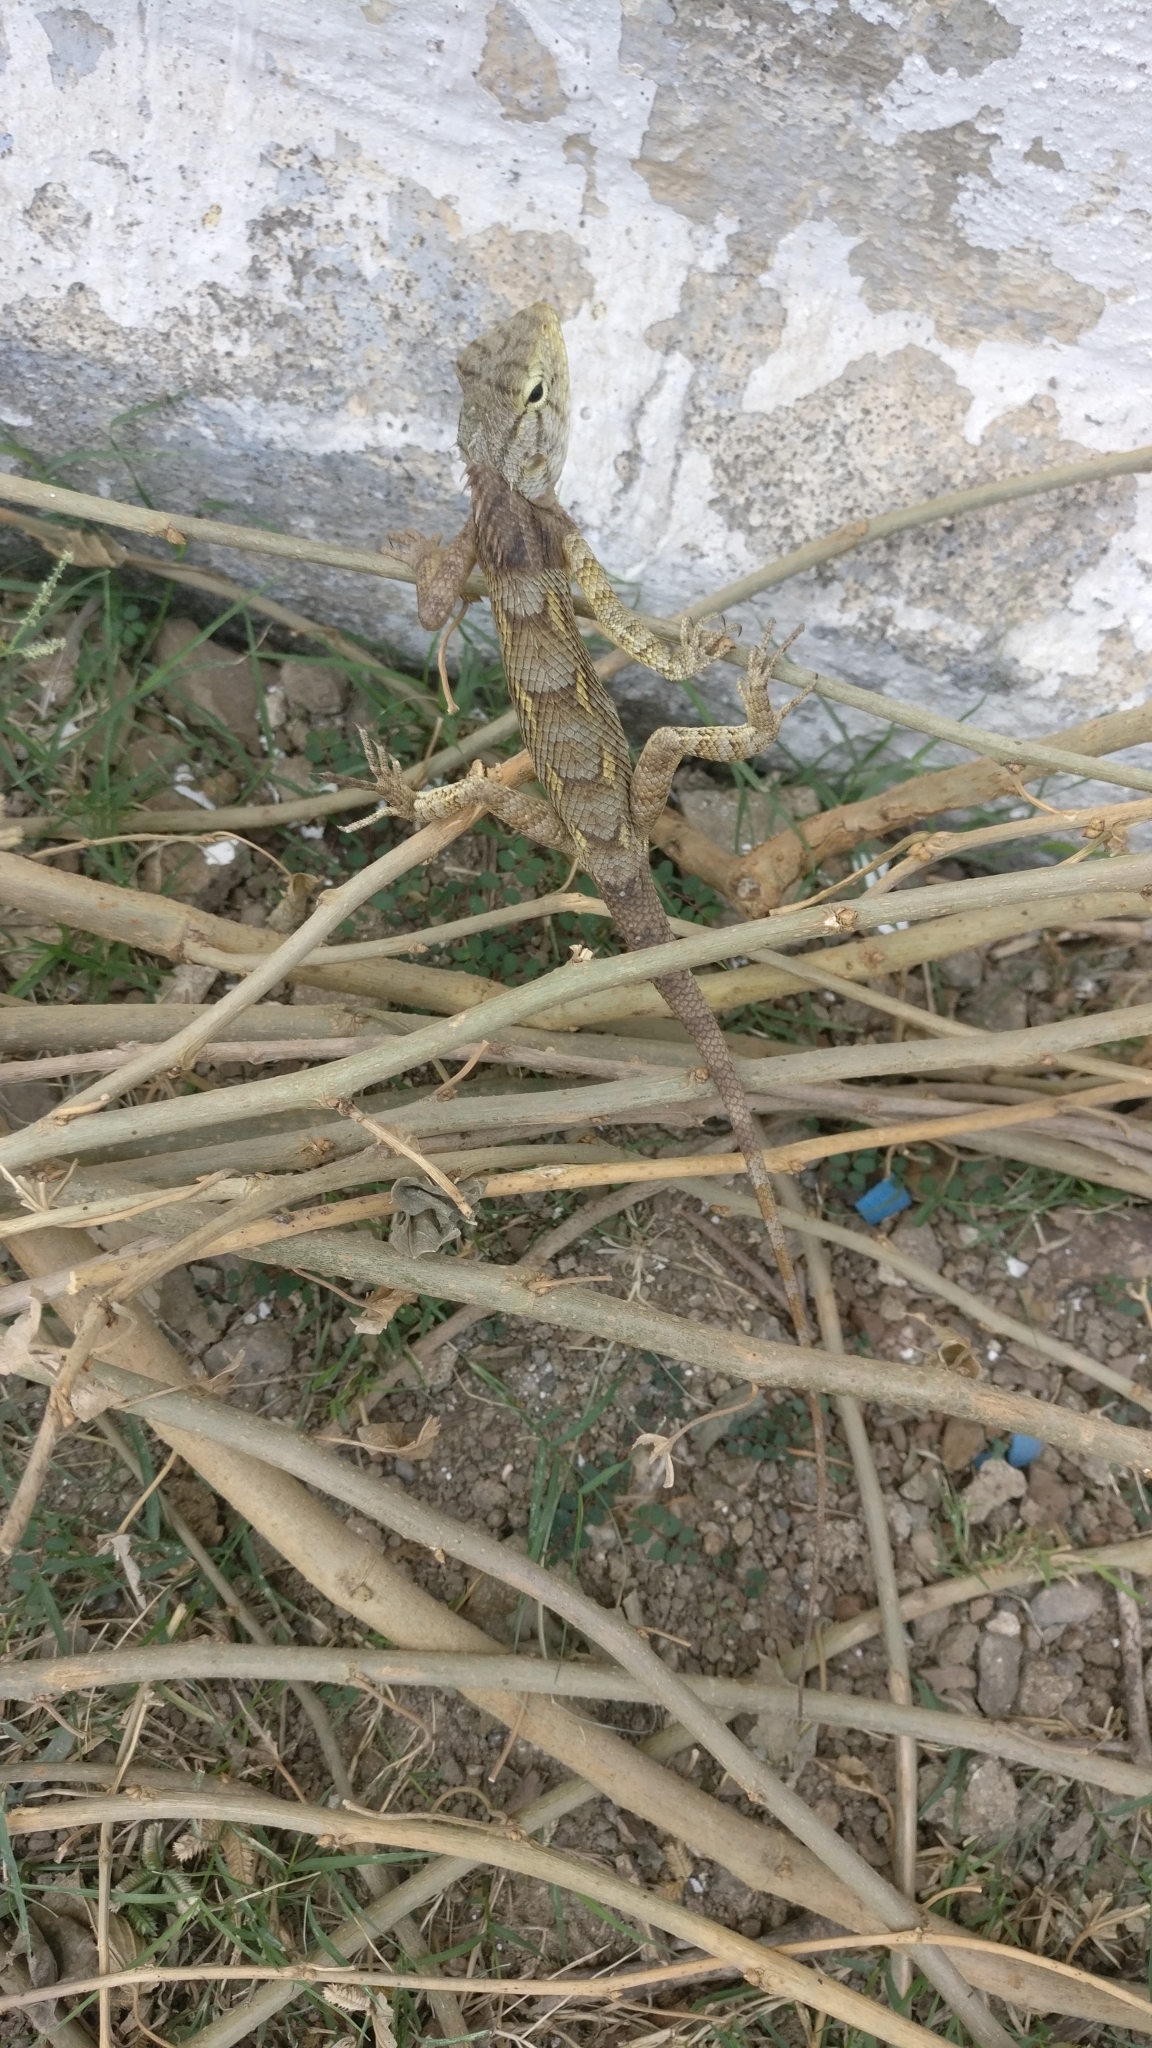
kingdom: Animalia
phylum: Chordata
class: Squamata
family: Agamidae
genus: Calotes
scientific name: Calotes versicolor
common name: Oriental garden lizard
